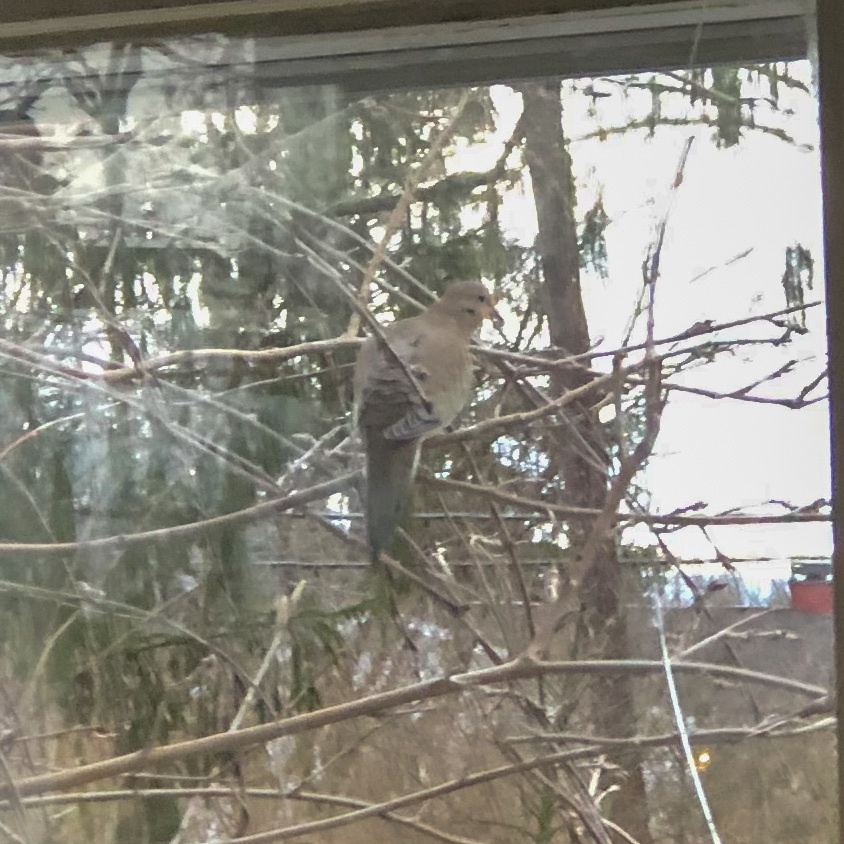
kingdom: Animalia
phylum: Chordata
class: Aves
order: Columbiformes
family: Columbidae
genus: Zenaida
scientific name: Zenaida macroura
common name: Mourning dove
